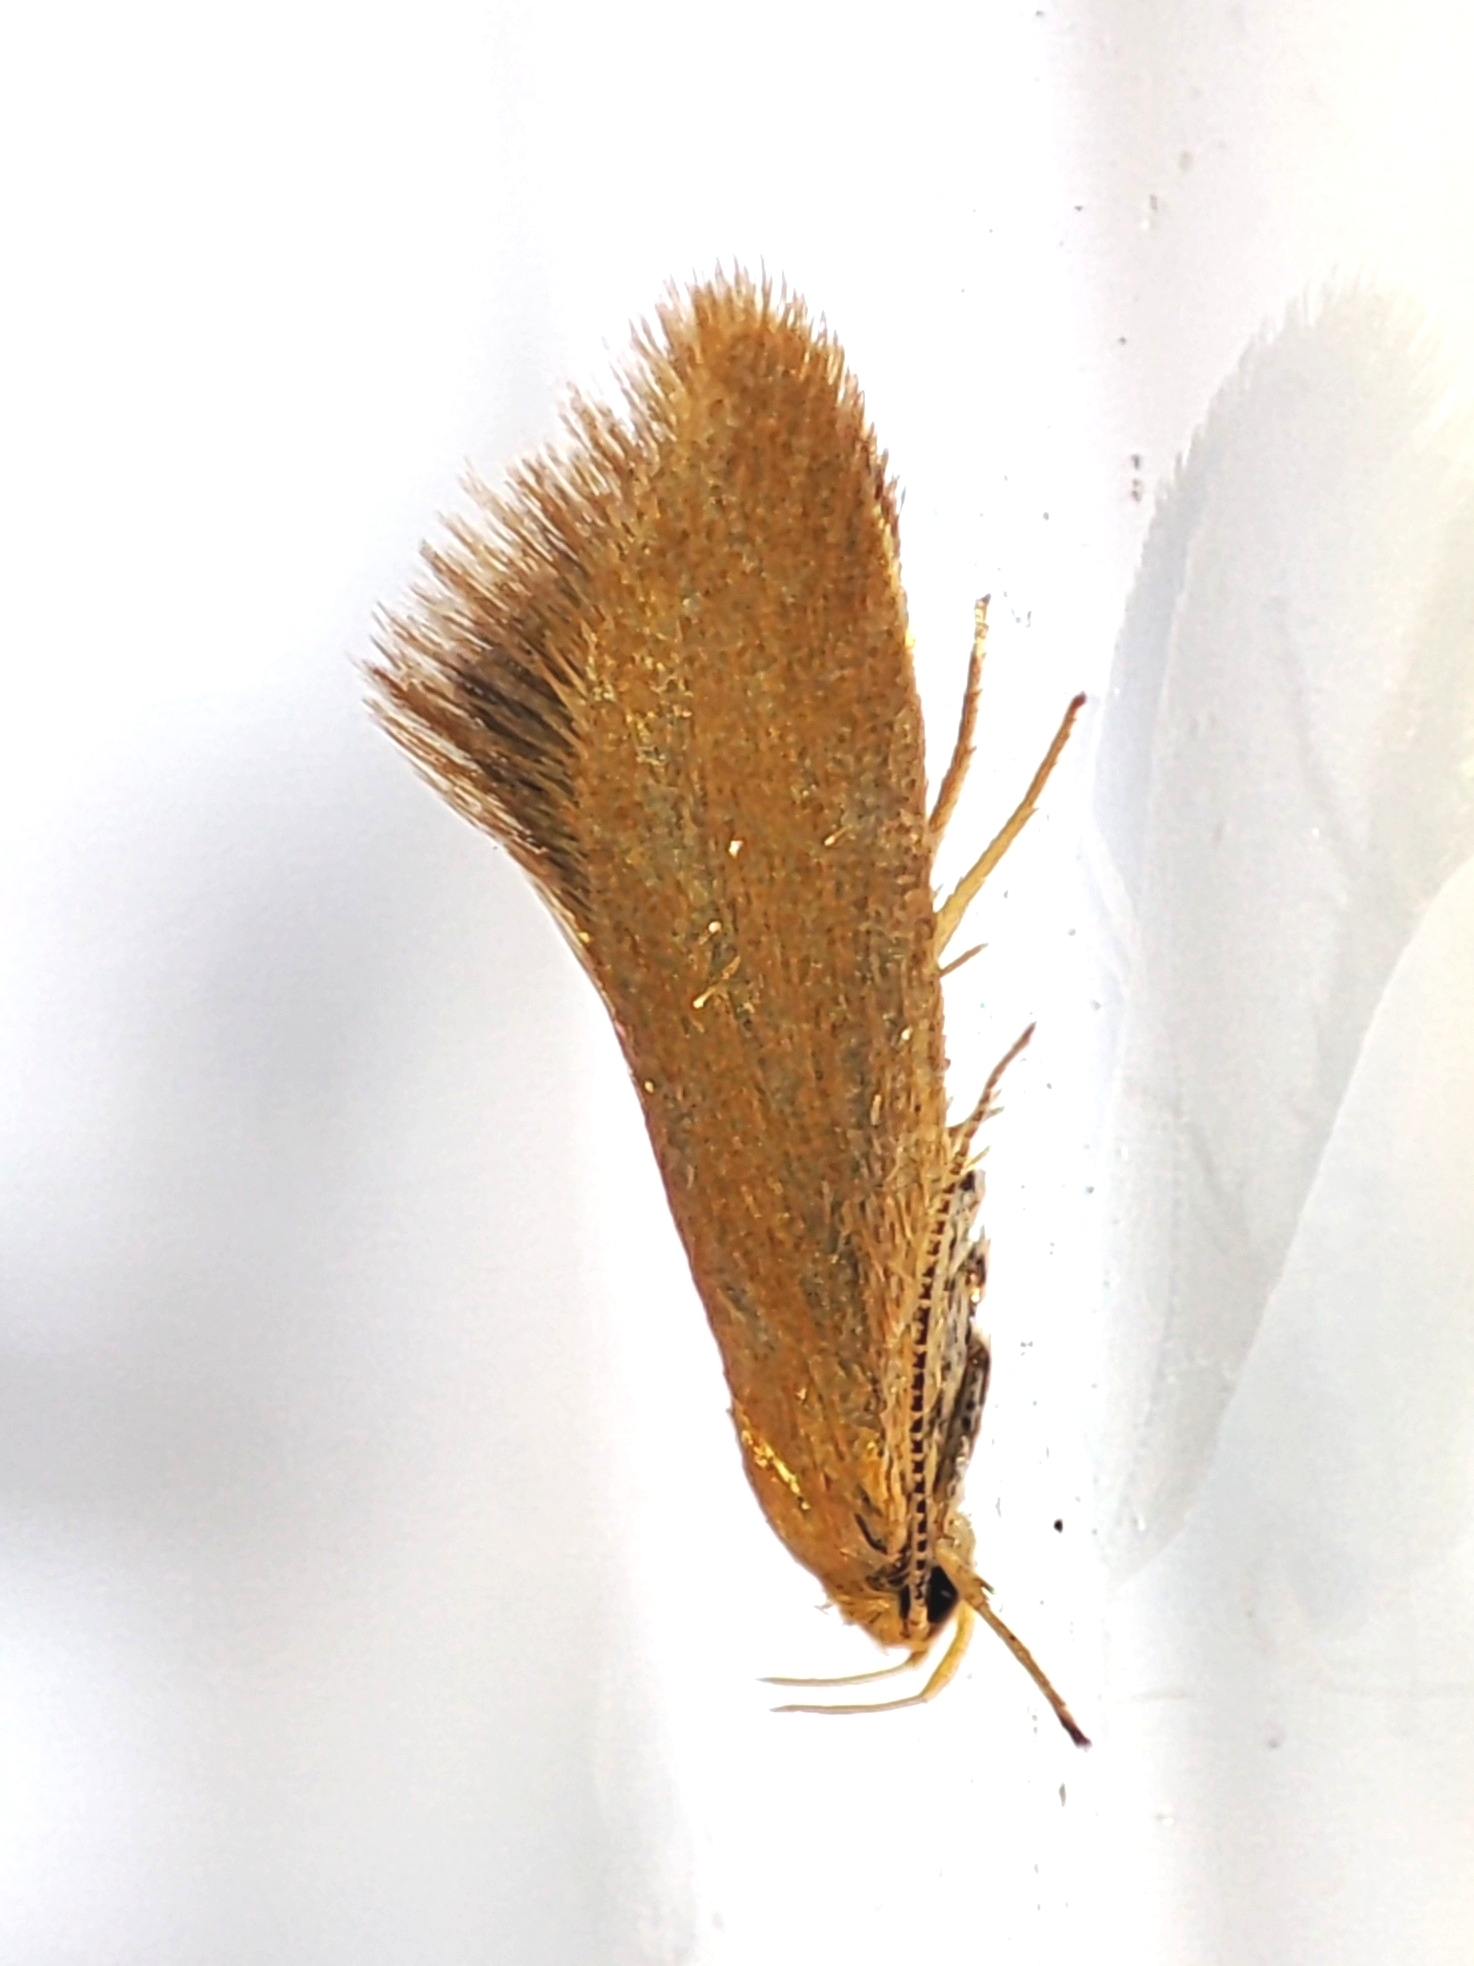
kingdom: Animalia
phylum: Arthropoda
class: Insecta
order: Lepidoptera
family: Oecophoridae
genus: Borkhausenia
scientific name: Borkhausenia Crassa tinctella
